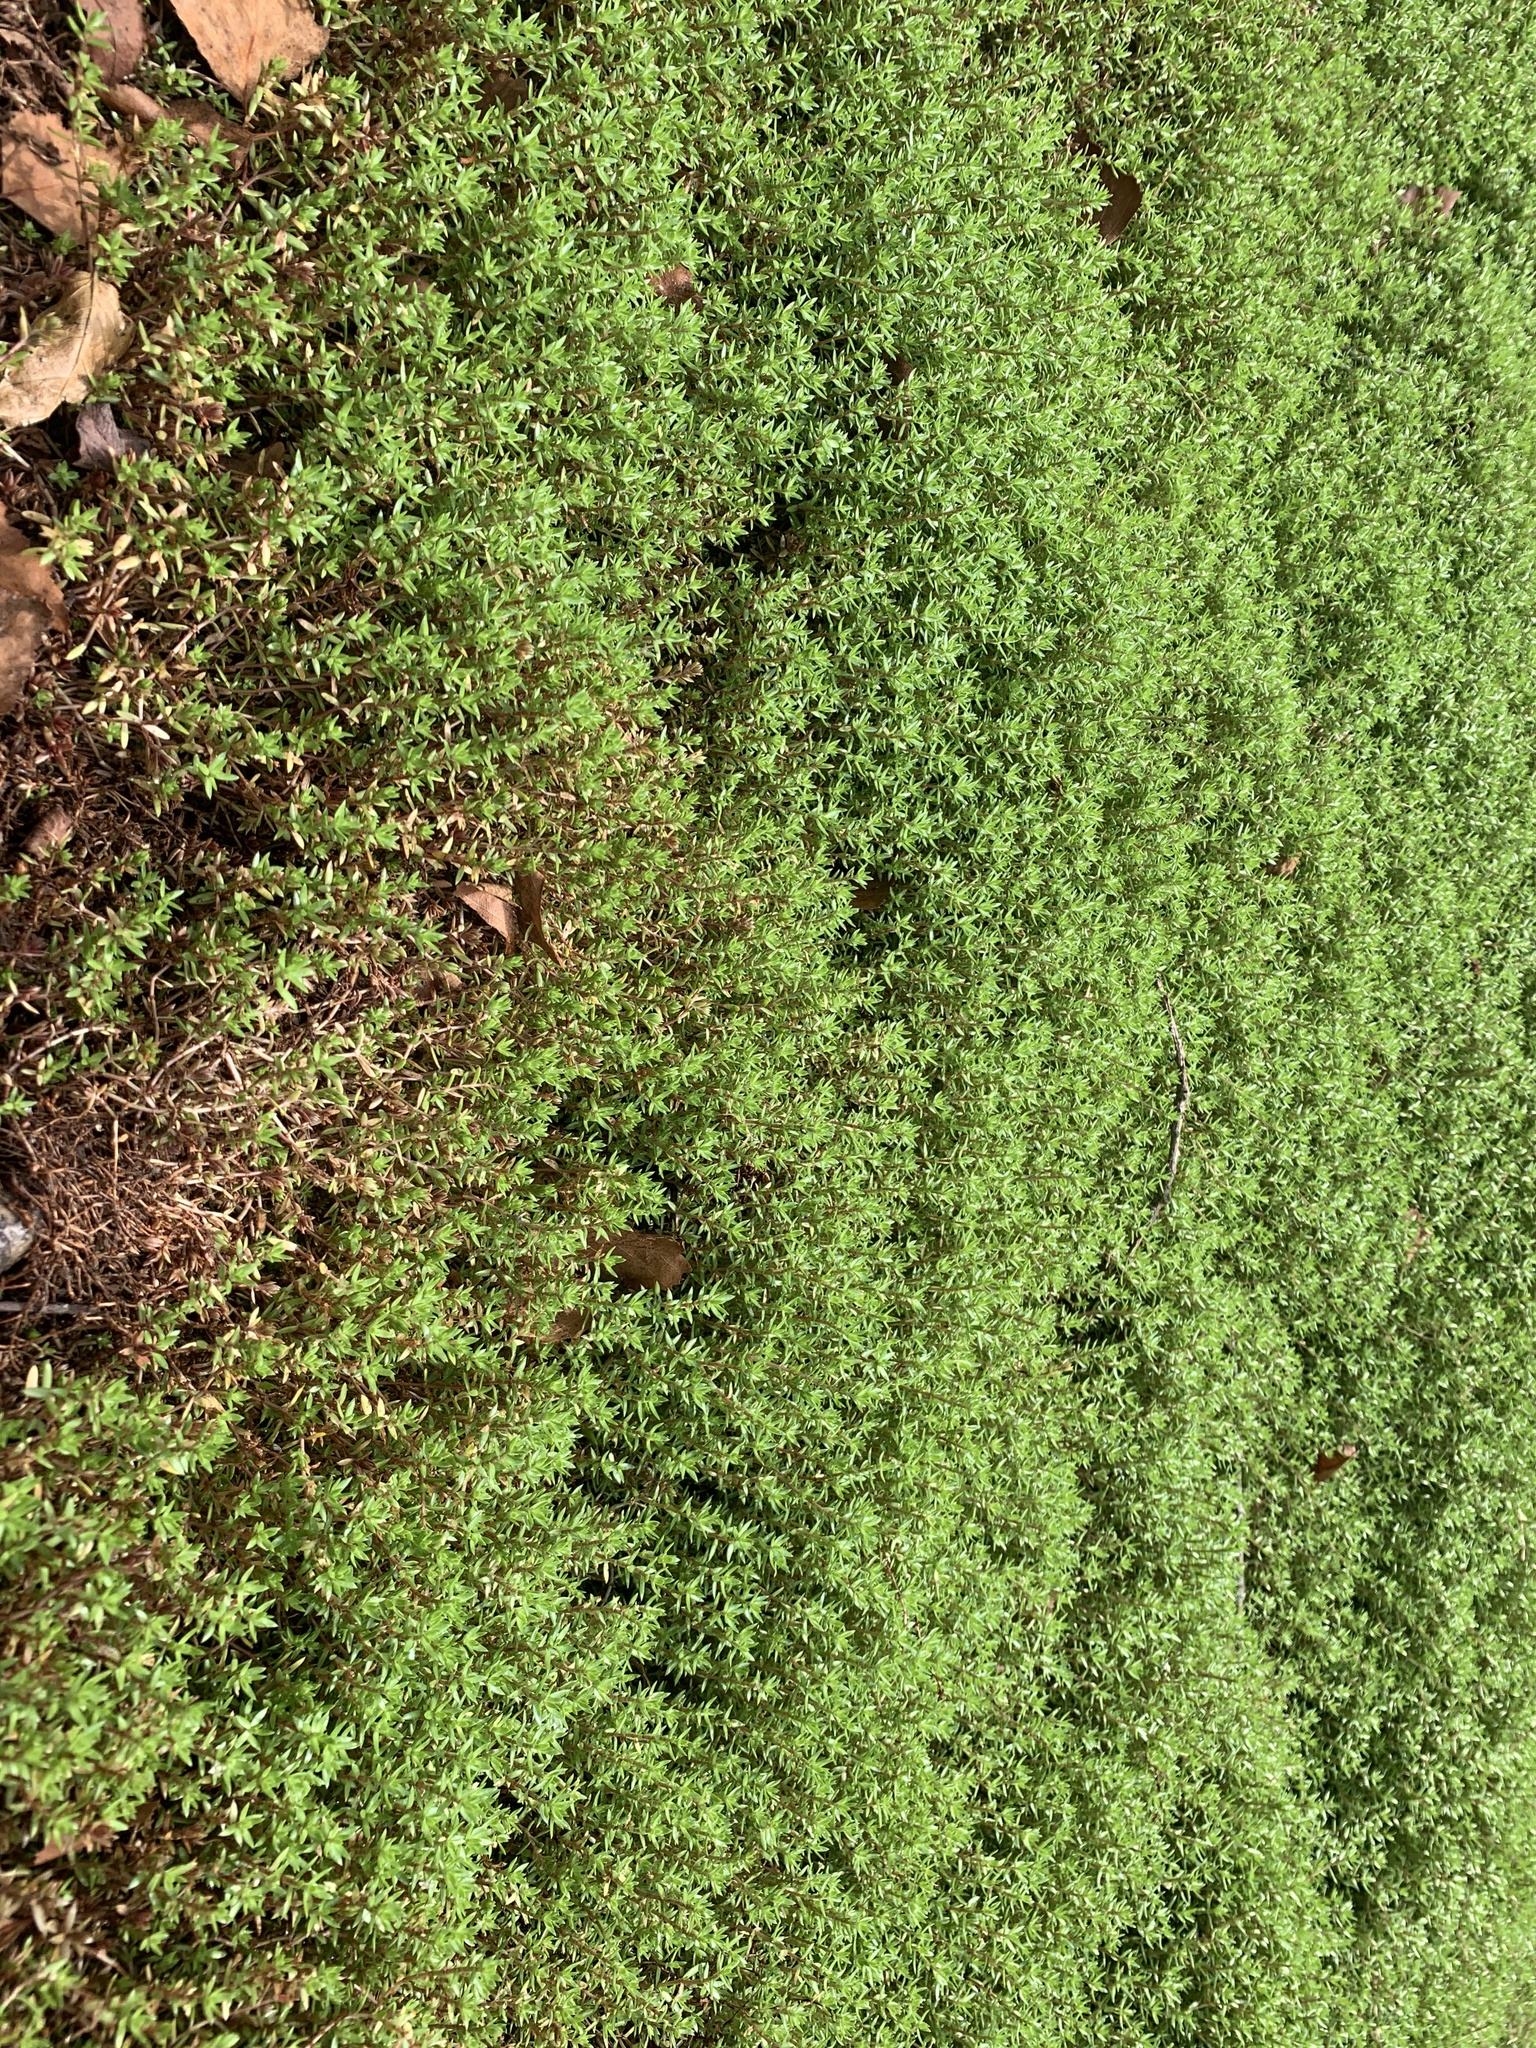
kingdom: Plantae
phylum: Tracheophyta
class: Magnoliopsida
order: Saxifragales
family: Crassulaceae
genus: Crassula
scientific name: Crassula helmsii
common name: New zealand pigmyweed
